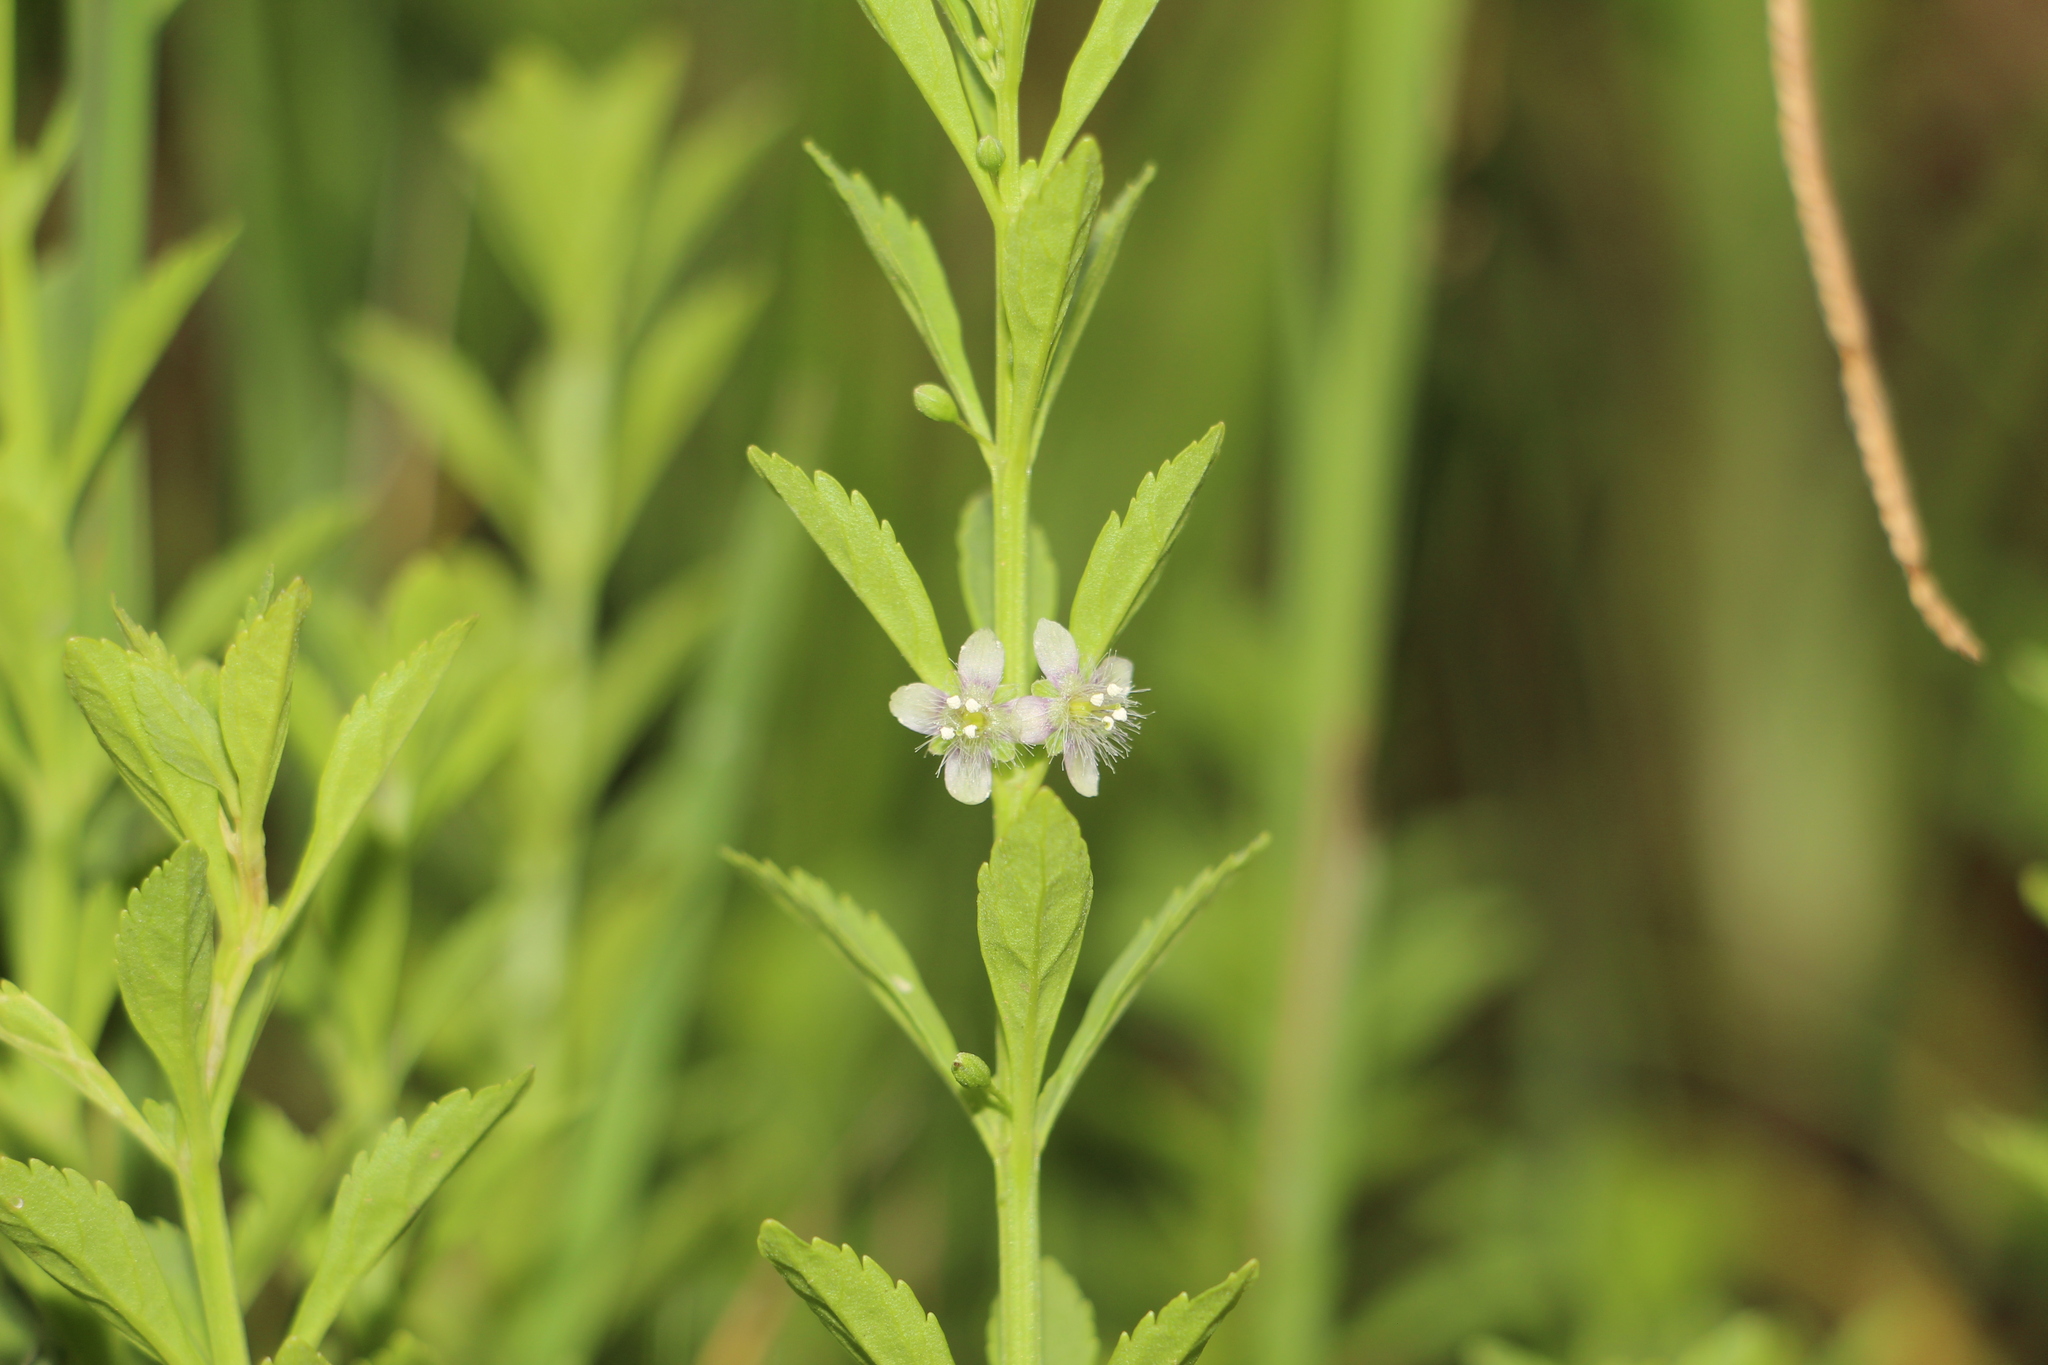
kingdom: Plantae
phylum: Tracheophyta
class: Magnoliopsida
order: Lamiales
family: Plantaginaceae
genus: Scoparia
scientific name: Scoparia dulcis
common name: Scoparia-weed
